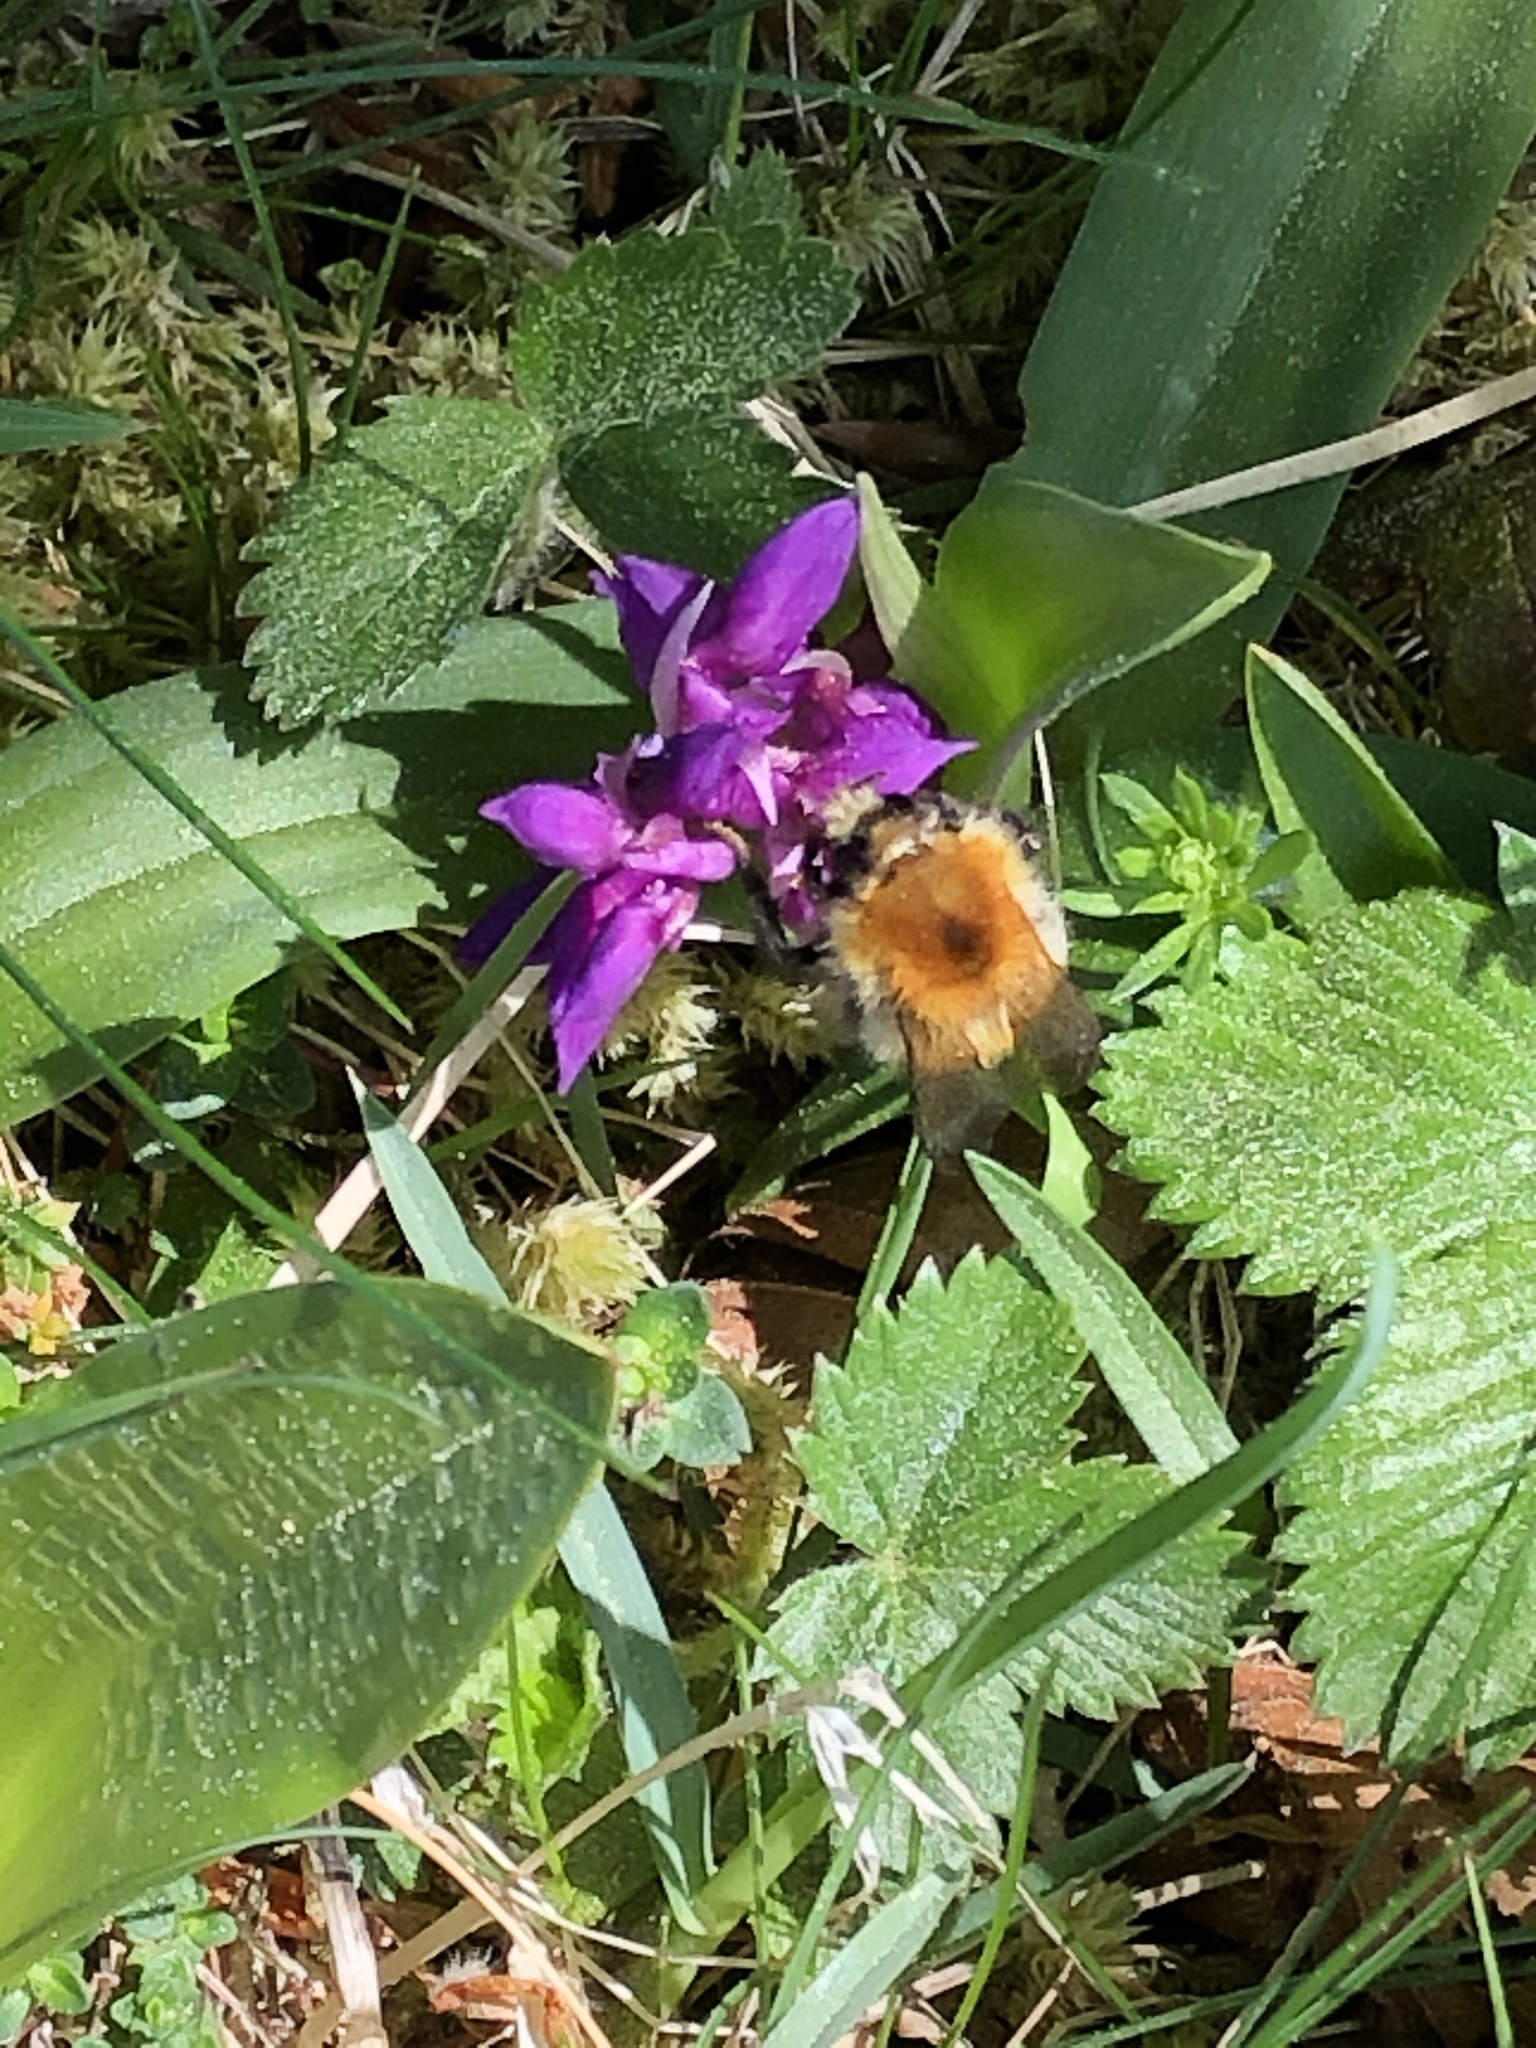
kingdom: Animalia
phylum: Arthropoda
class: Insecta
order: Hymenoptera
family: Apidae
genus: Bombus
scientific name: Bombus pascuorum
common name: Common carder bee
